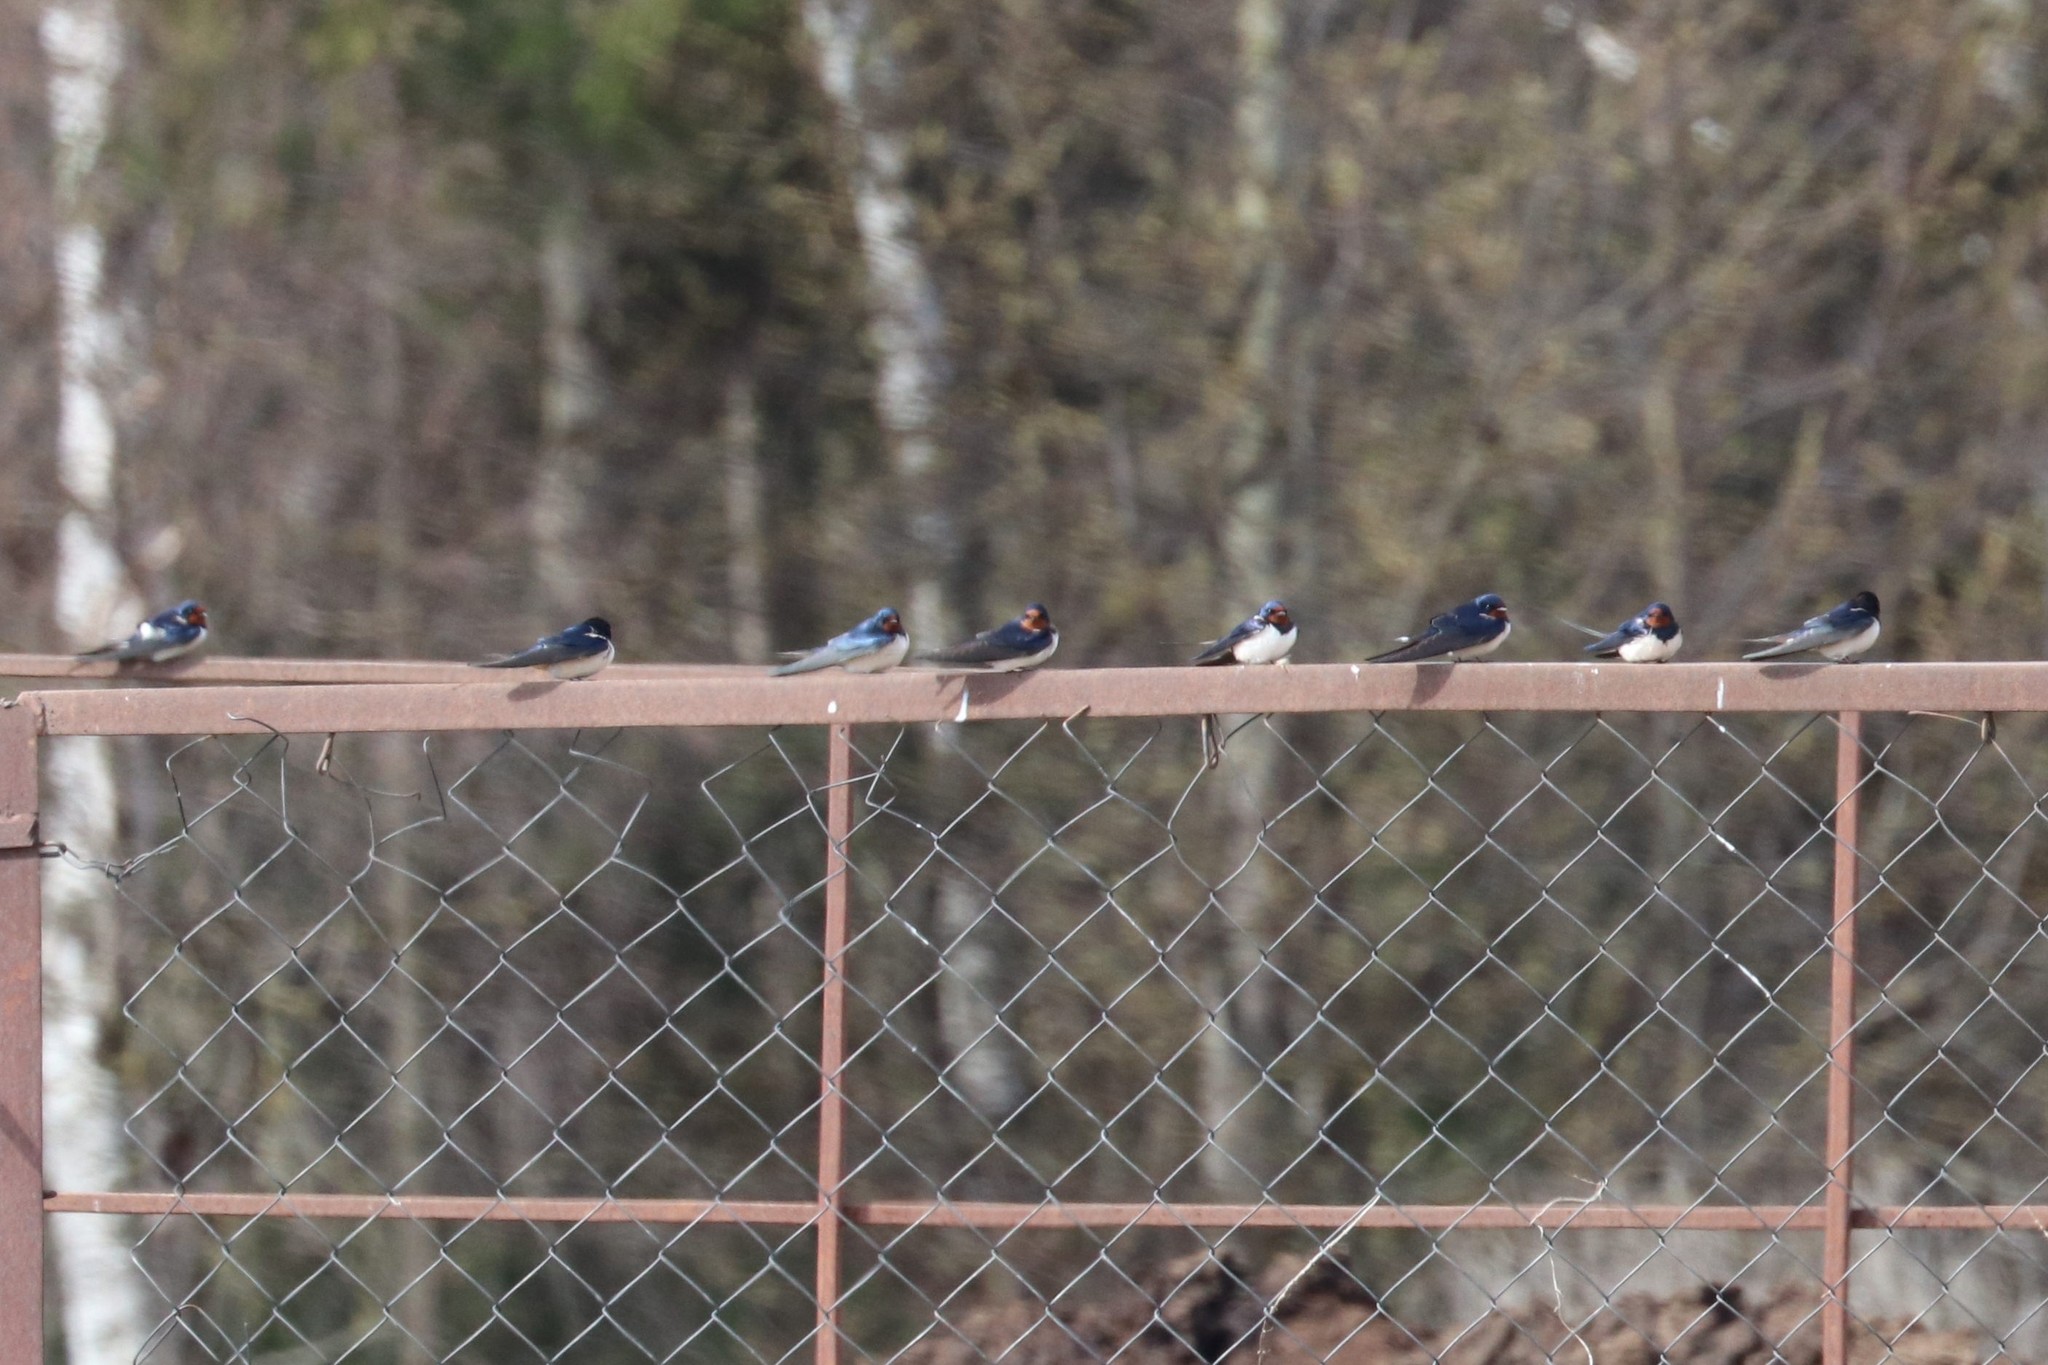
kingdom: Animalia
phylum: Chordata
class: Aves
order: Passeriformes
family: Hirundinidae
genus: Hirundo
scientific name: Hirundo rustica
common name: Barn swallow
